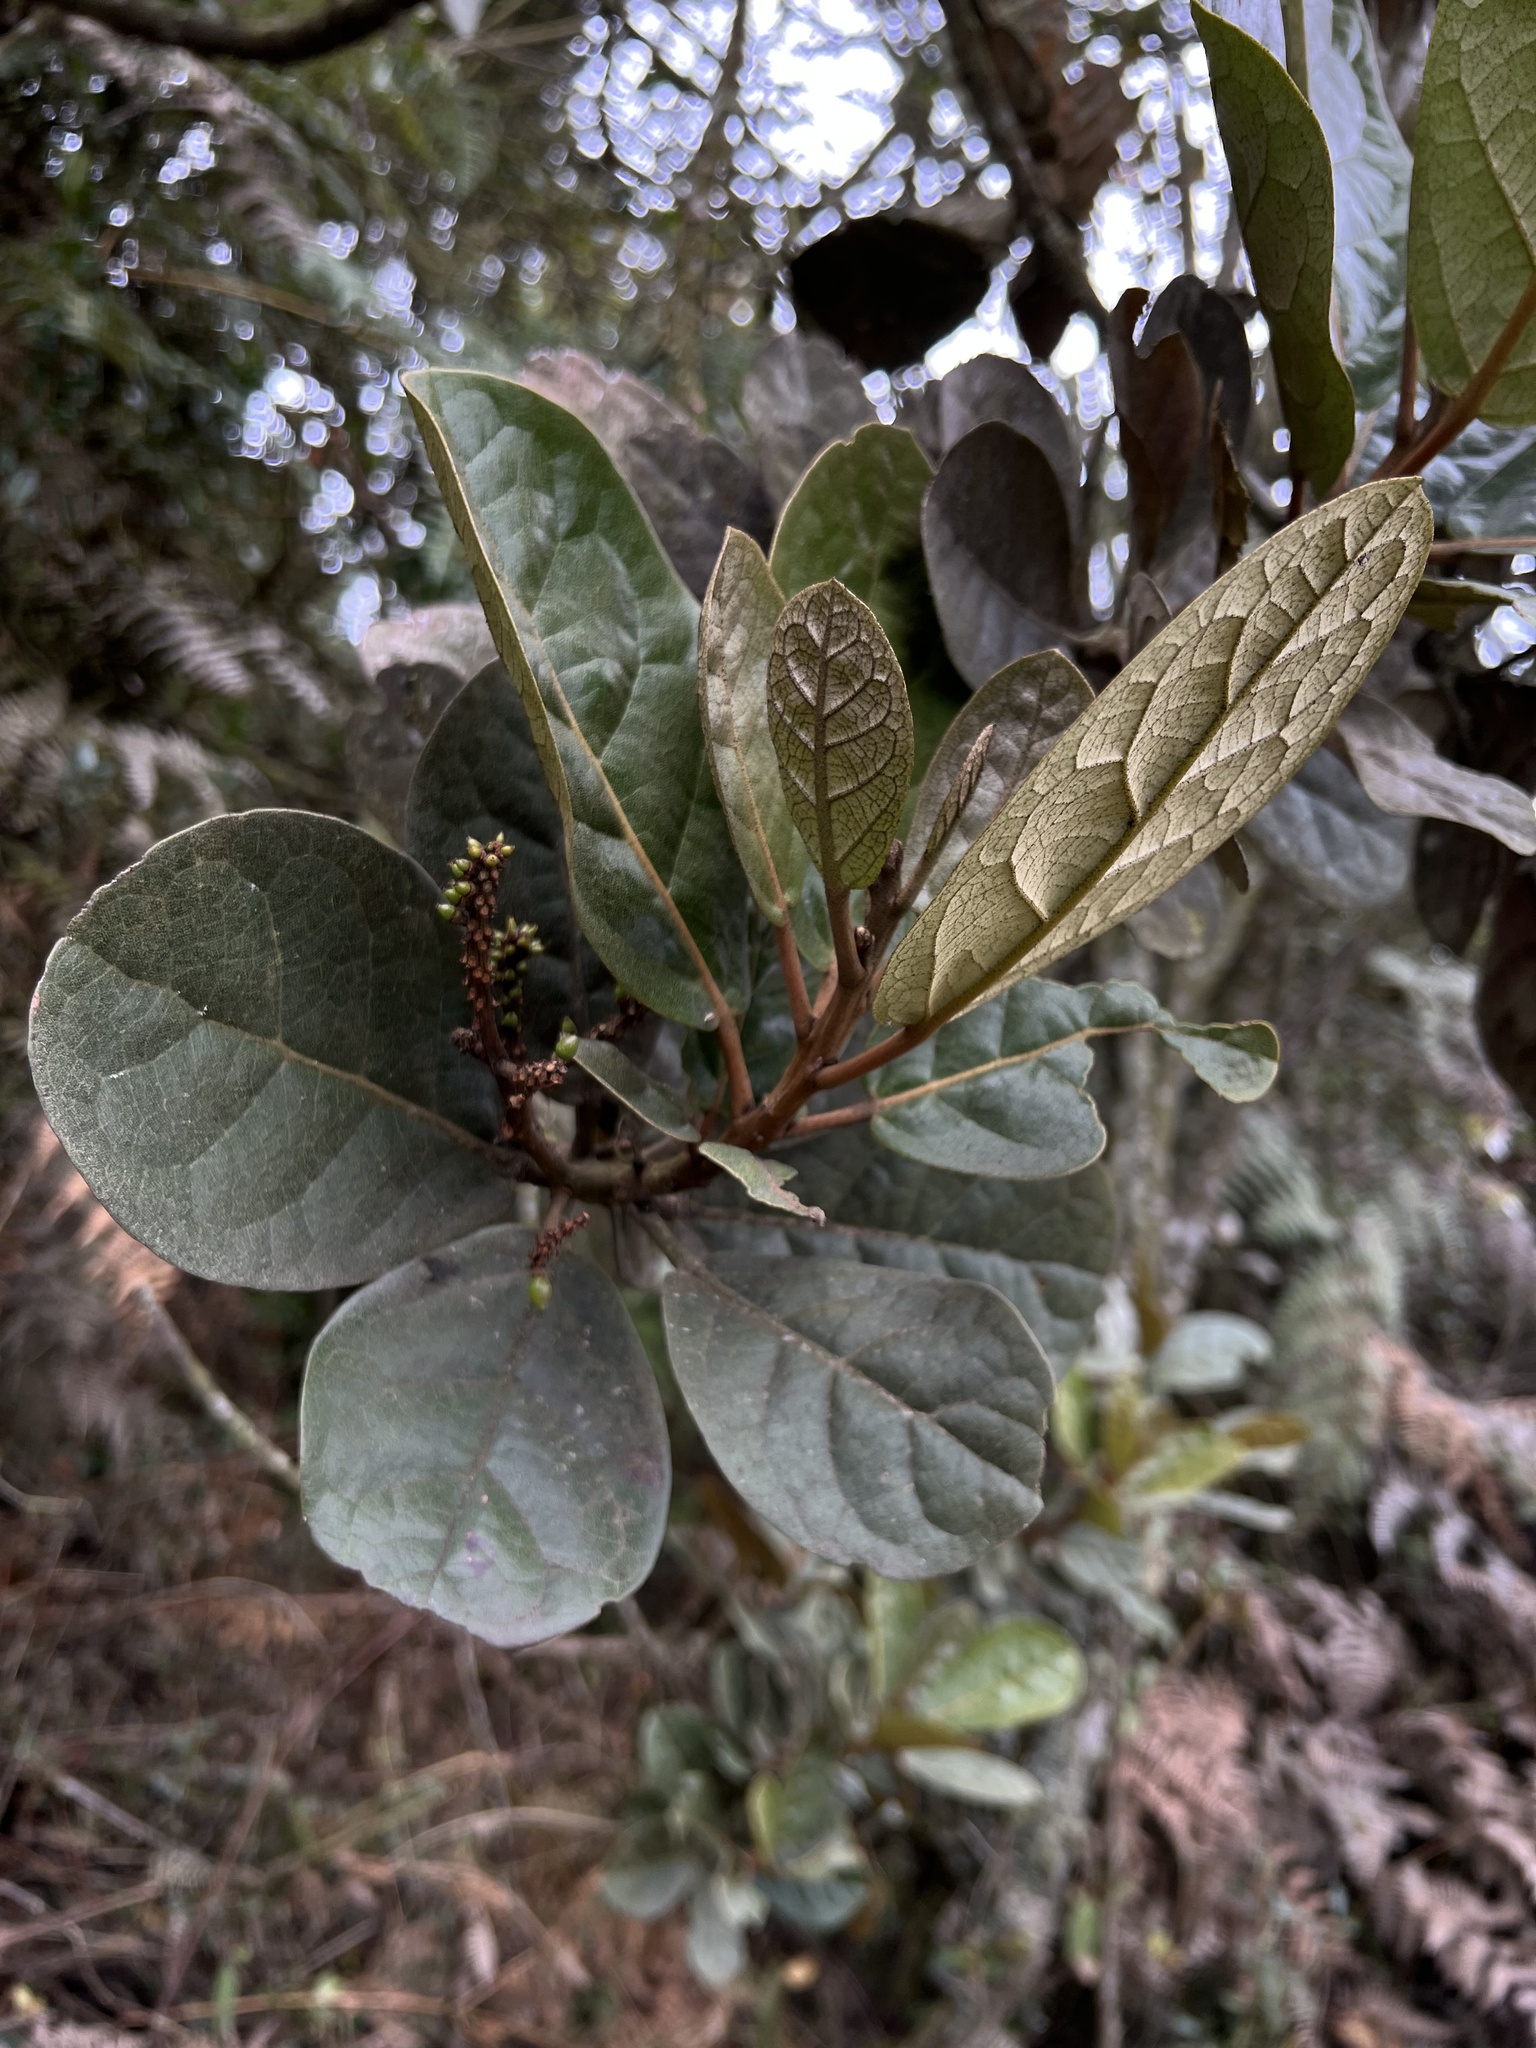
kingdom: Plantae
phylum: Tracheophyta
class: Magnoliopsida
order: Malpighiales
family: Phyllanthaceae
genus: Hieronyma
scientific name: Hieronyma rufa
